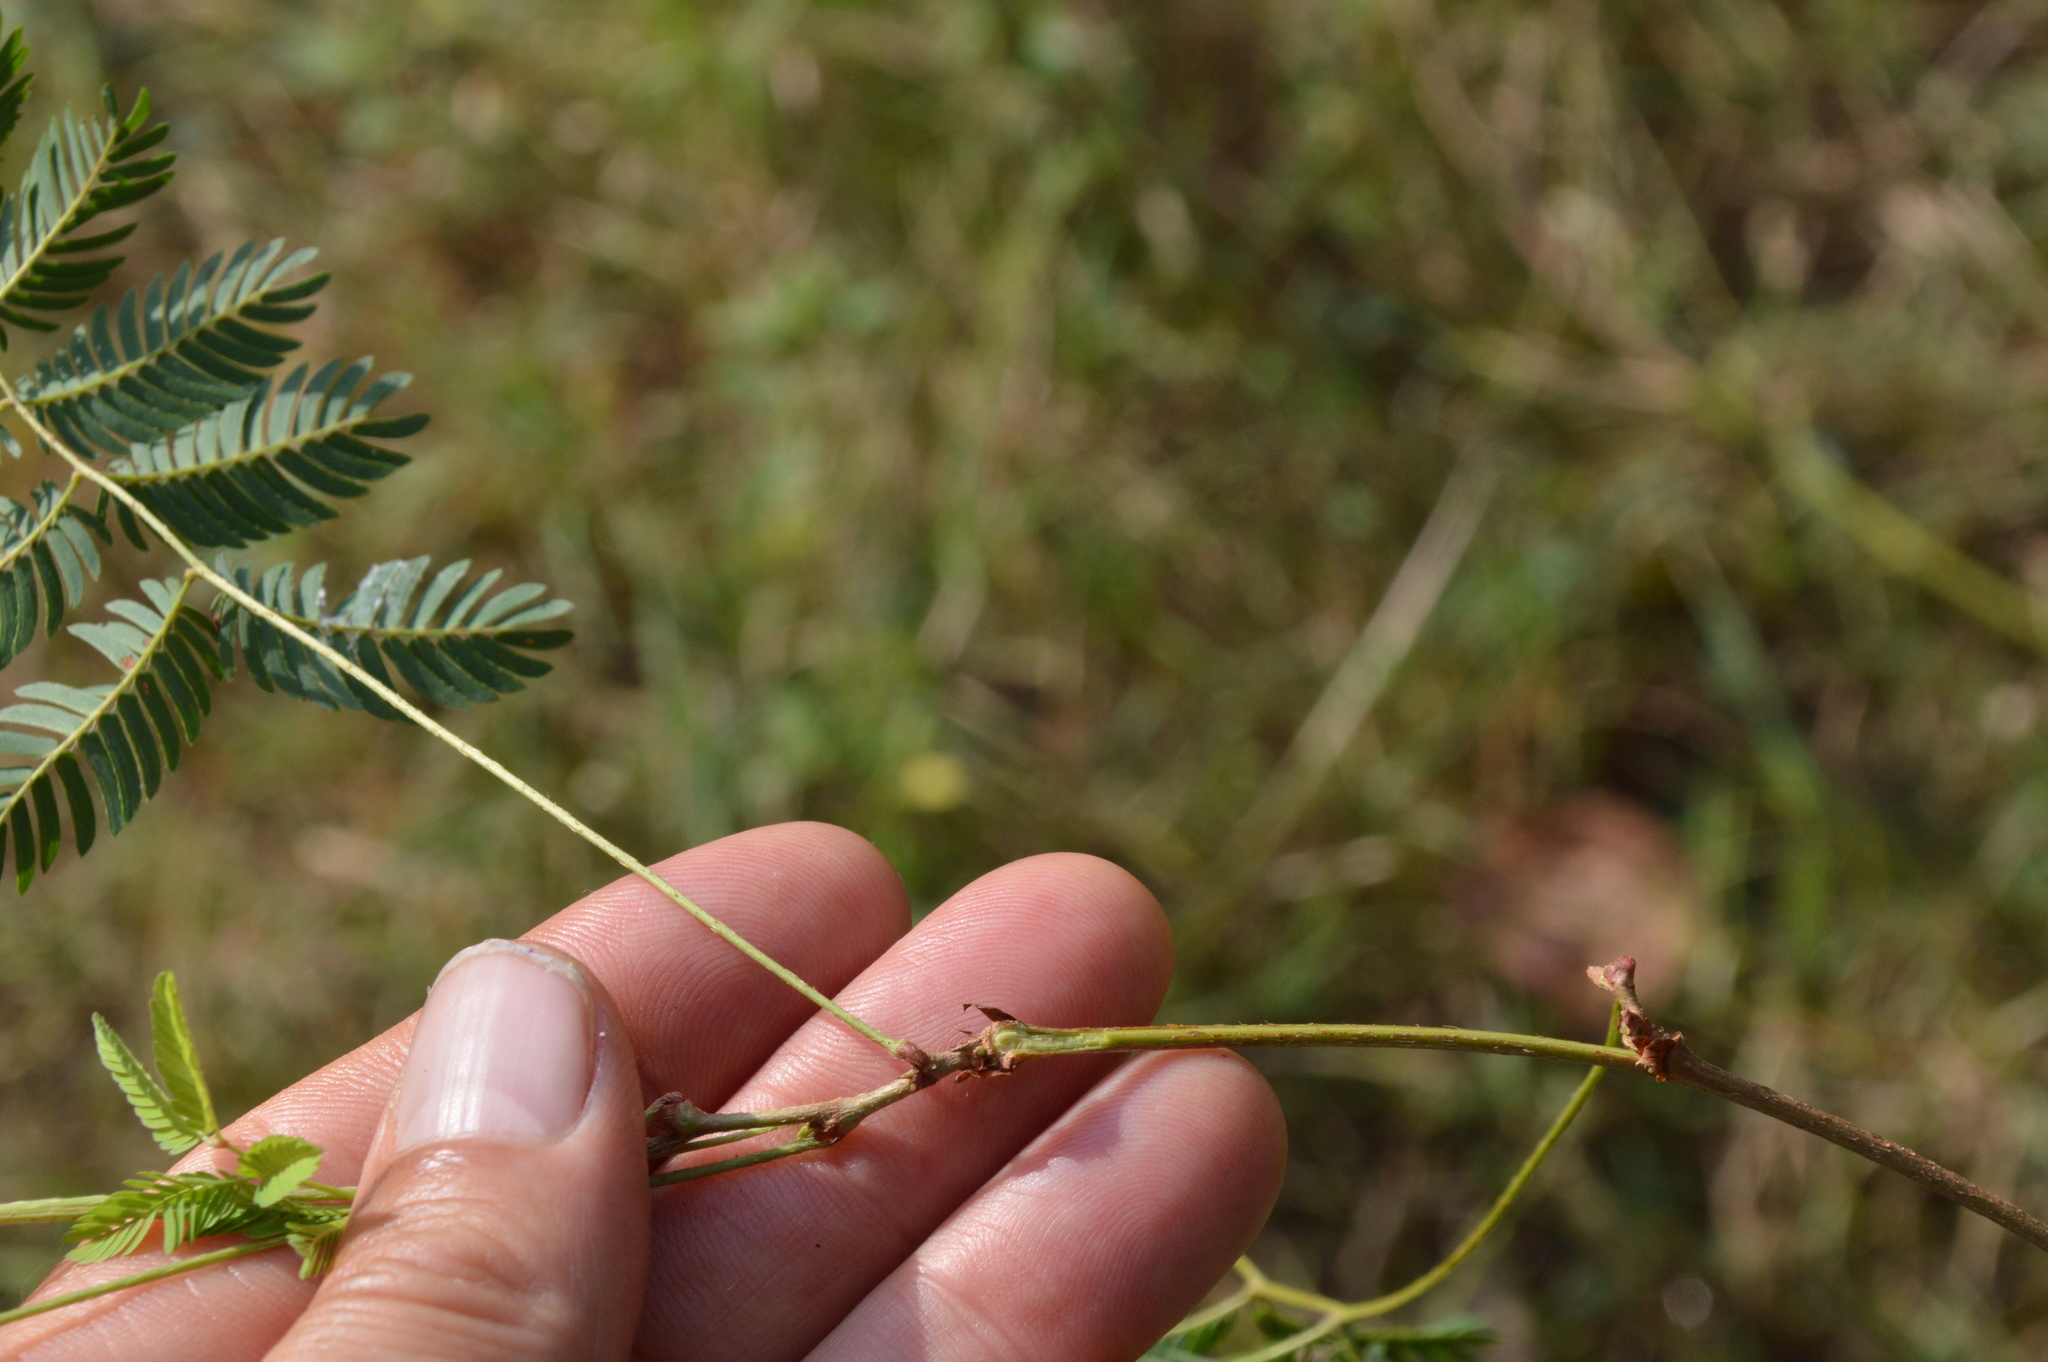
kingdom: Plantae
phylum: Tracheophyta
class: Magnoliopsida
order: Fabales
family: Fabaceae
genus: Mimosa
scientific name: Mimosa strigillosa
